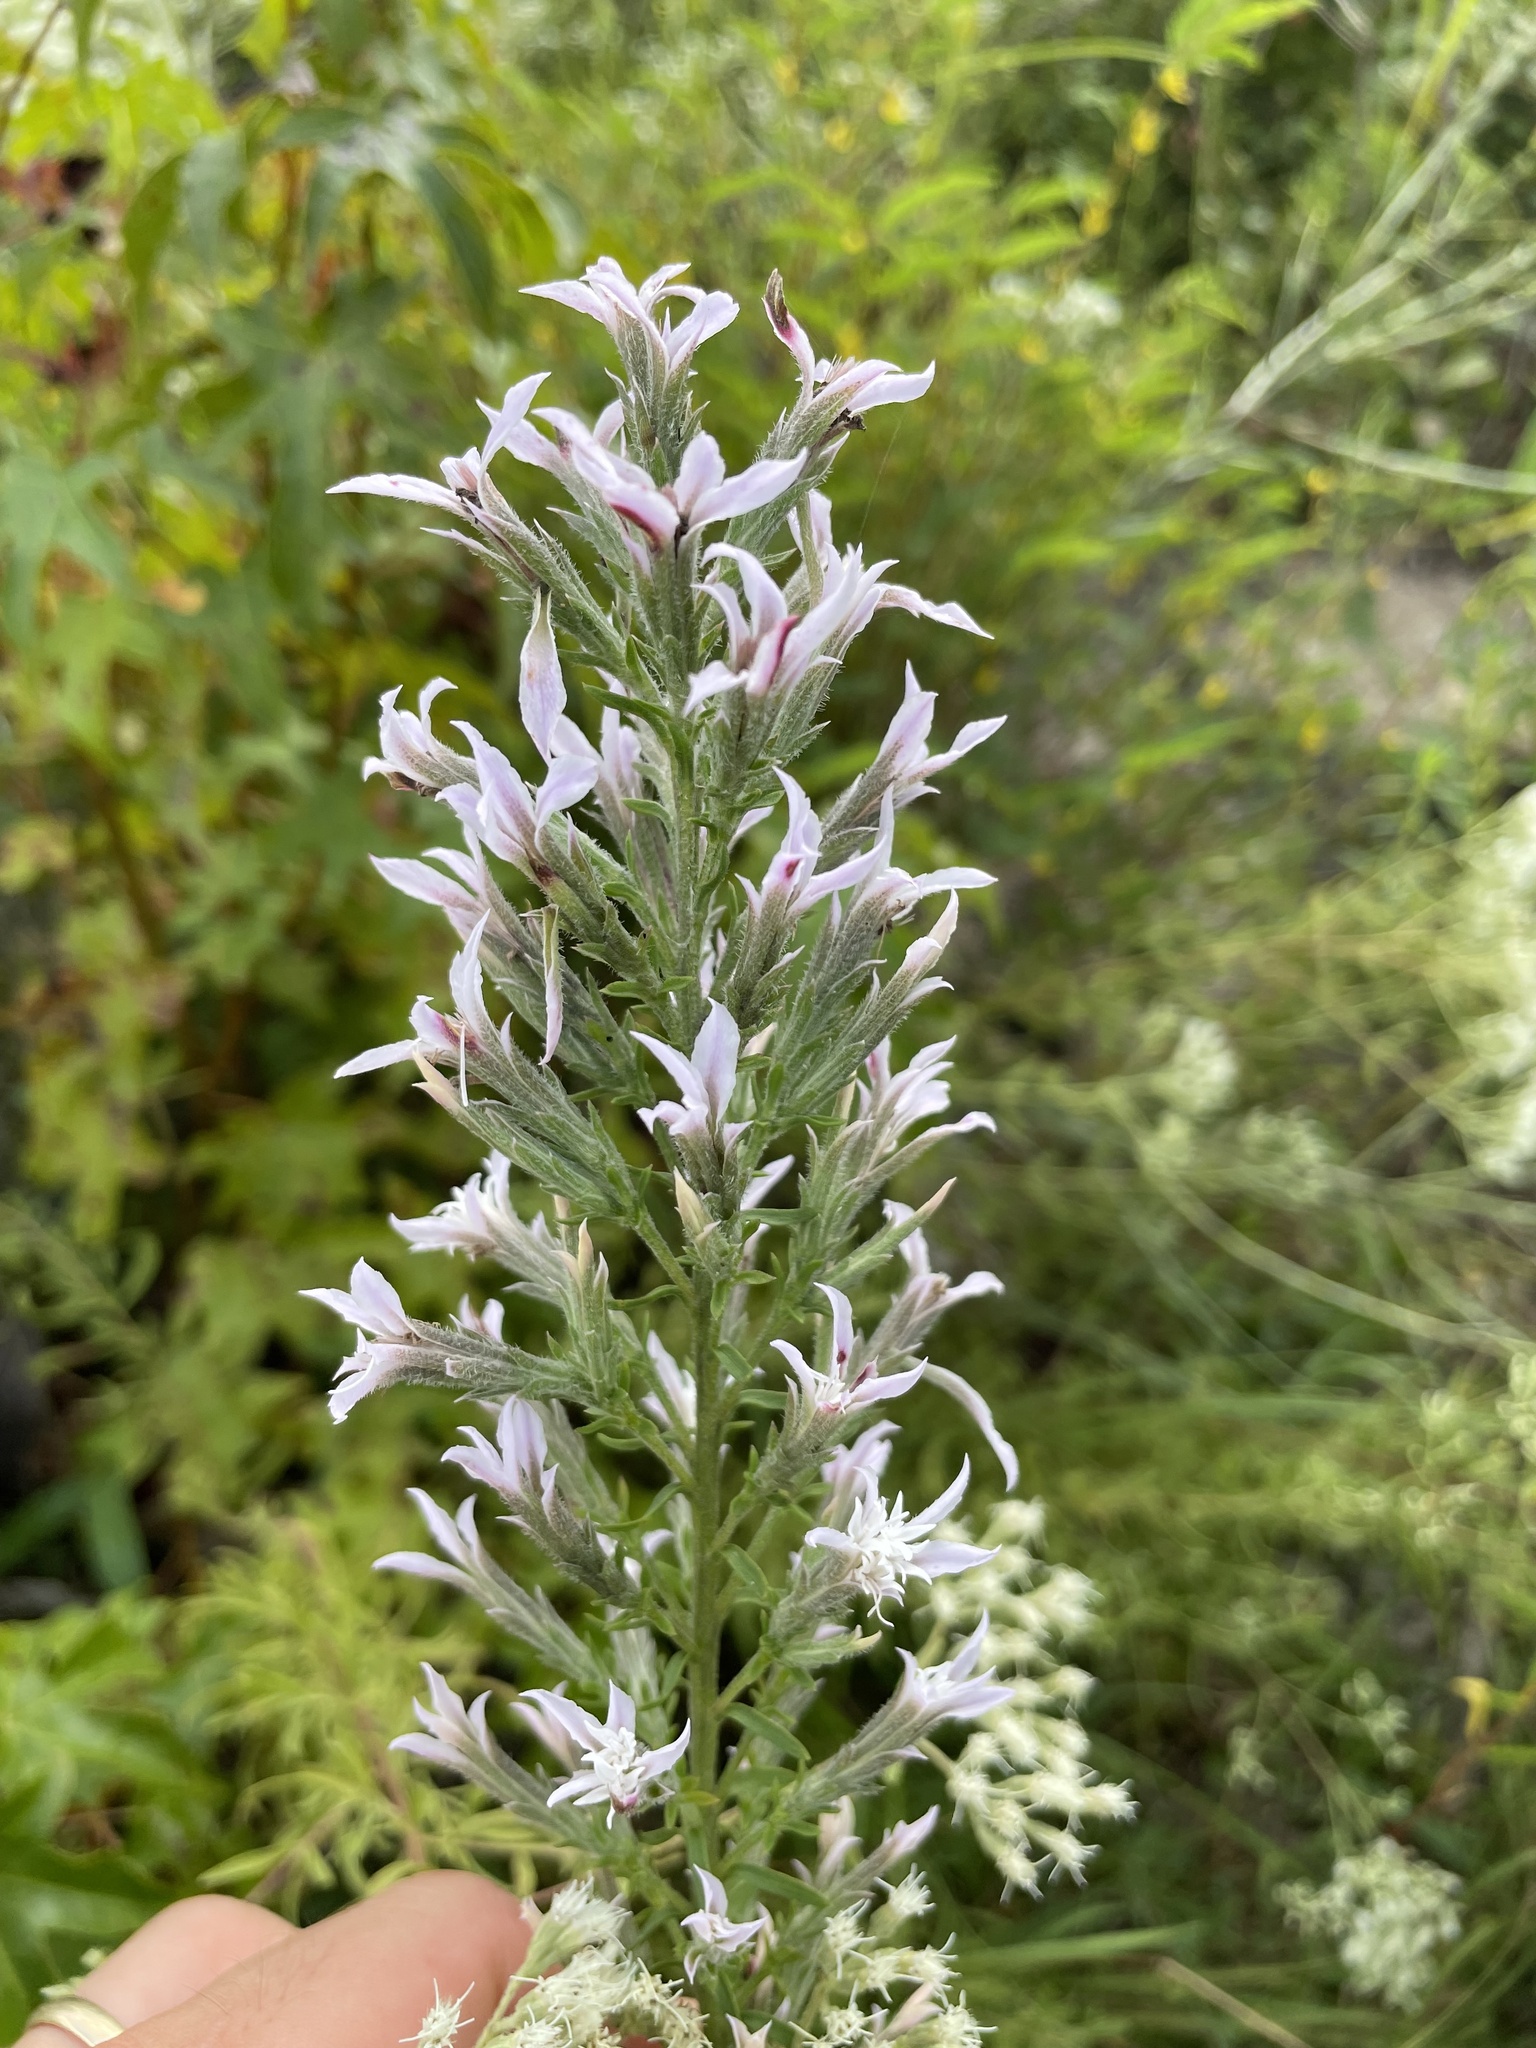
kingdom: Plantae
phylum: Tracheophyta
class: Magnoliopsida
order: Asterales
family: Asteraceae
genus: Liatris
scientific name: Liatris elegans
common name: Pinkscale gayfeather
